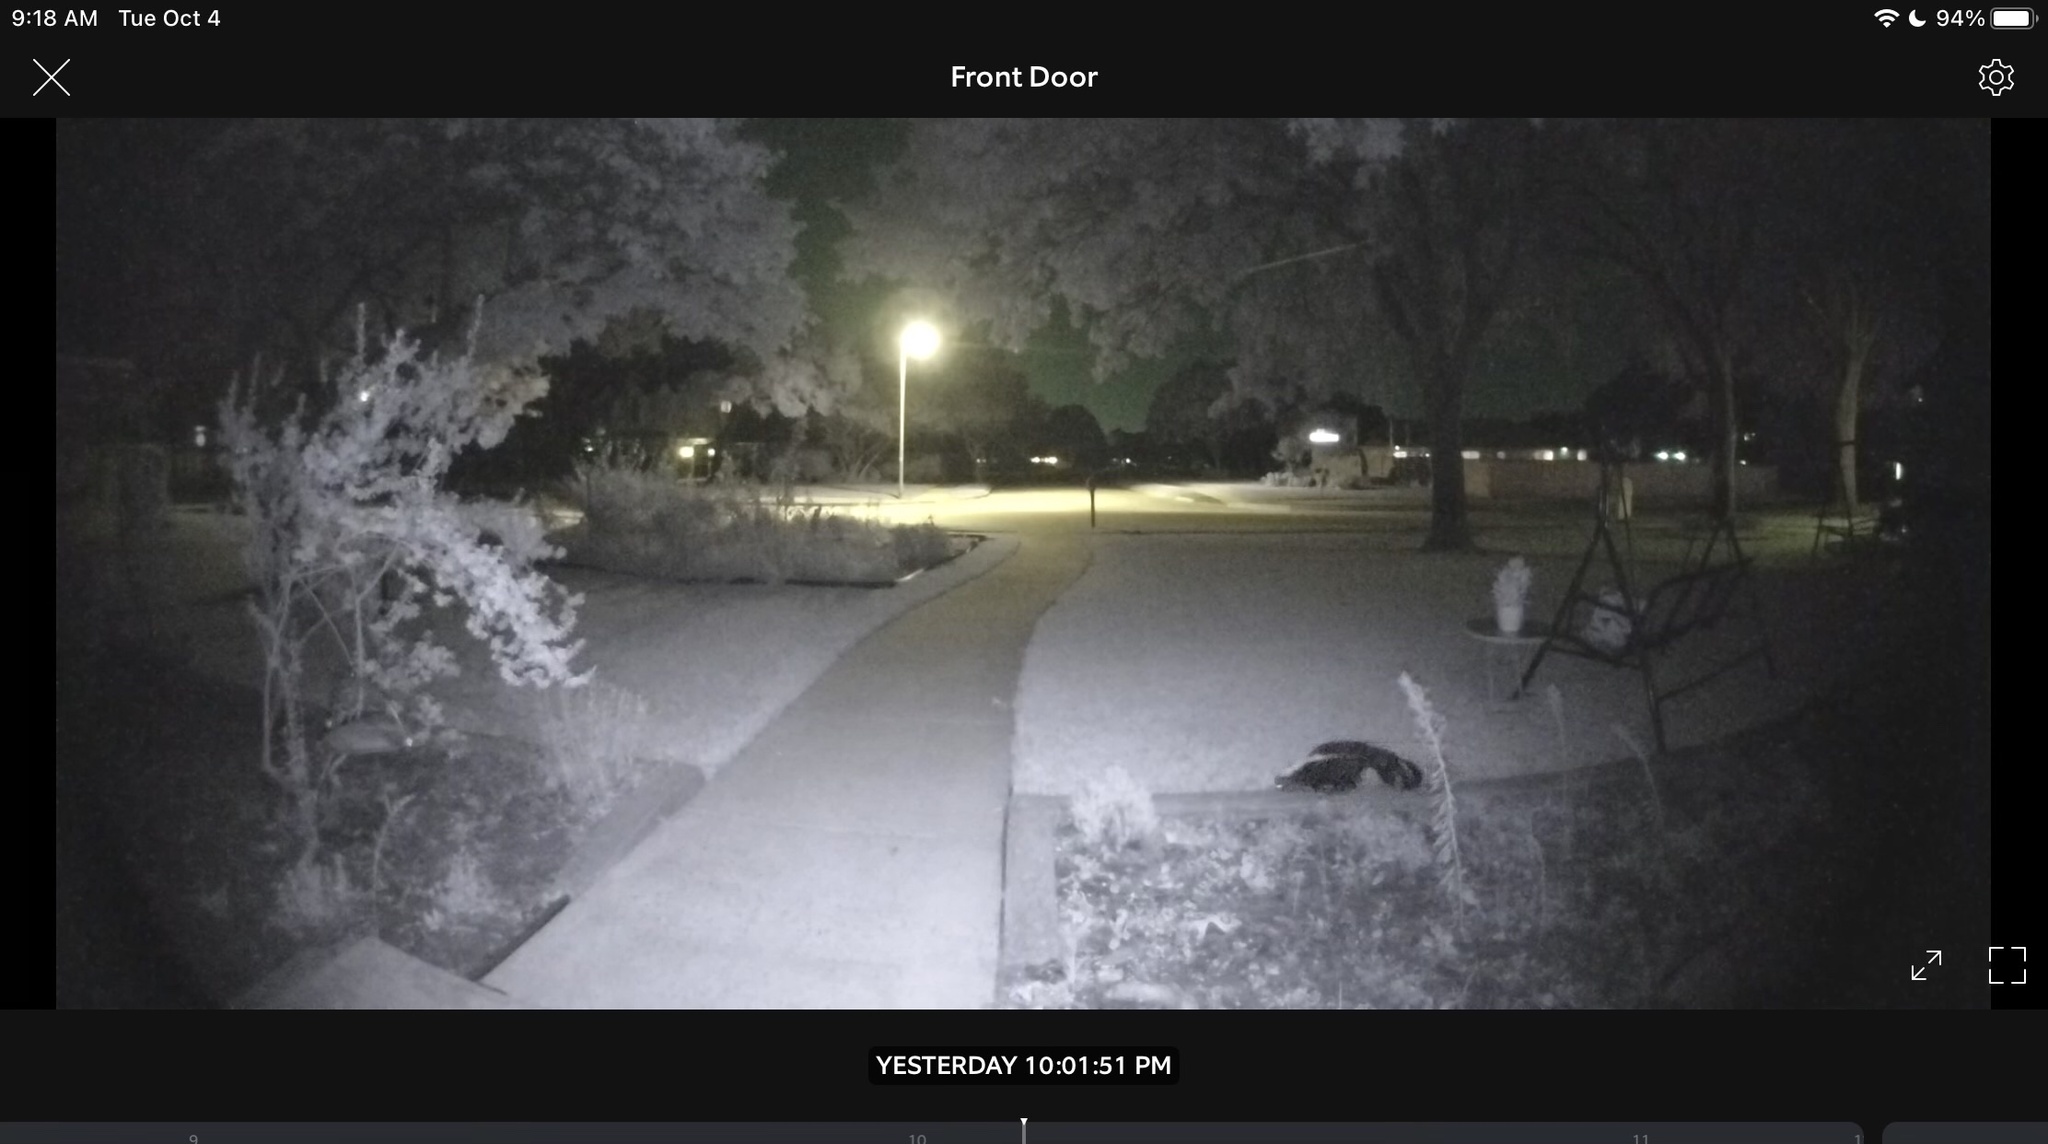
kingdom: Animalia
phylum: Chordata
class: Mammalia
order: Carnivora
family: Mephitidae
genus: Mephitis
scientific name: Mephitis mephitis
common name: Striped skunk
